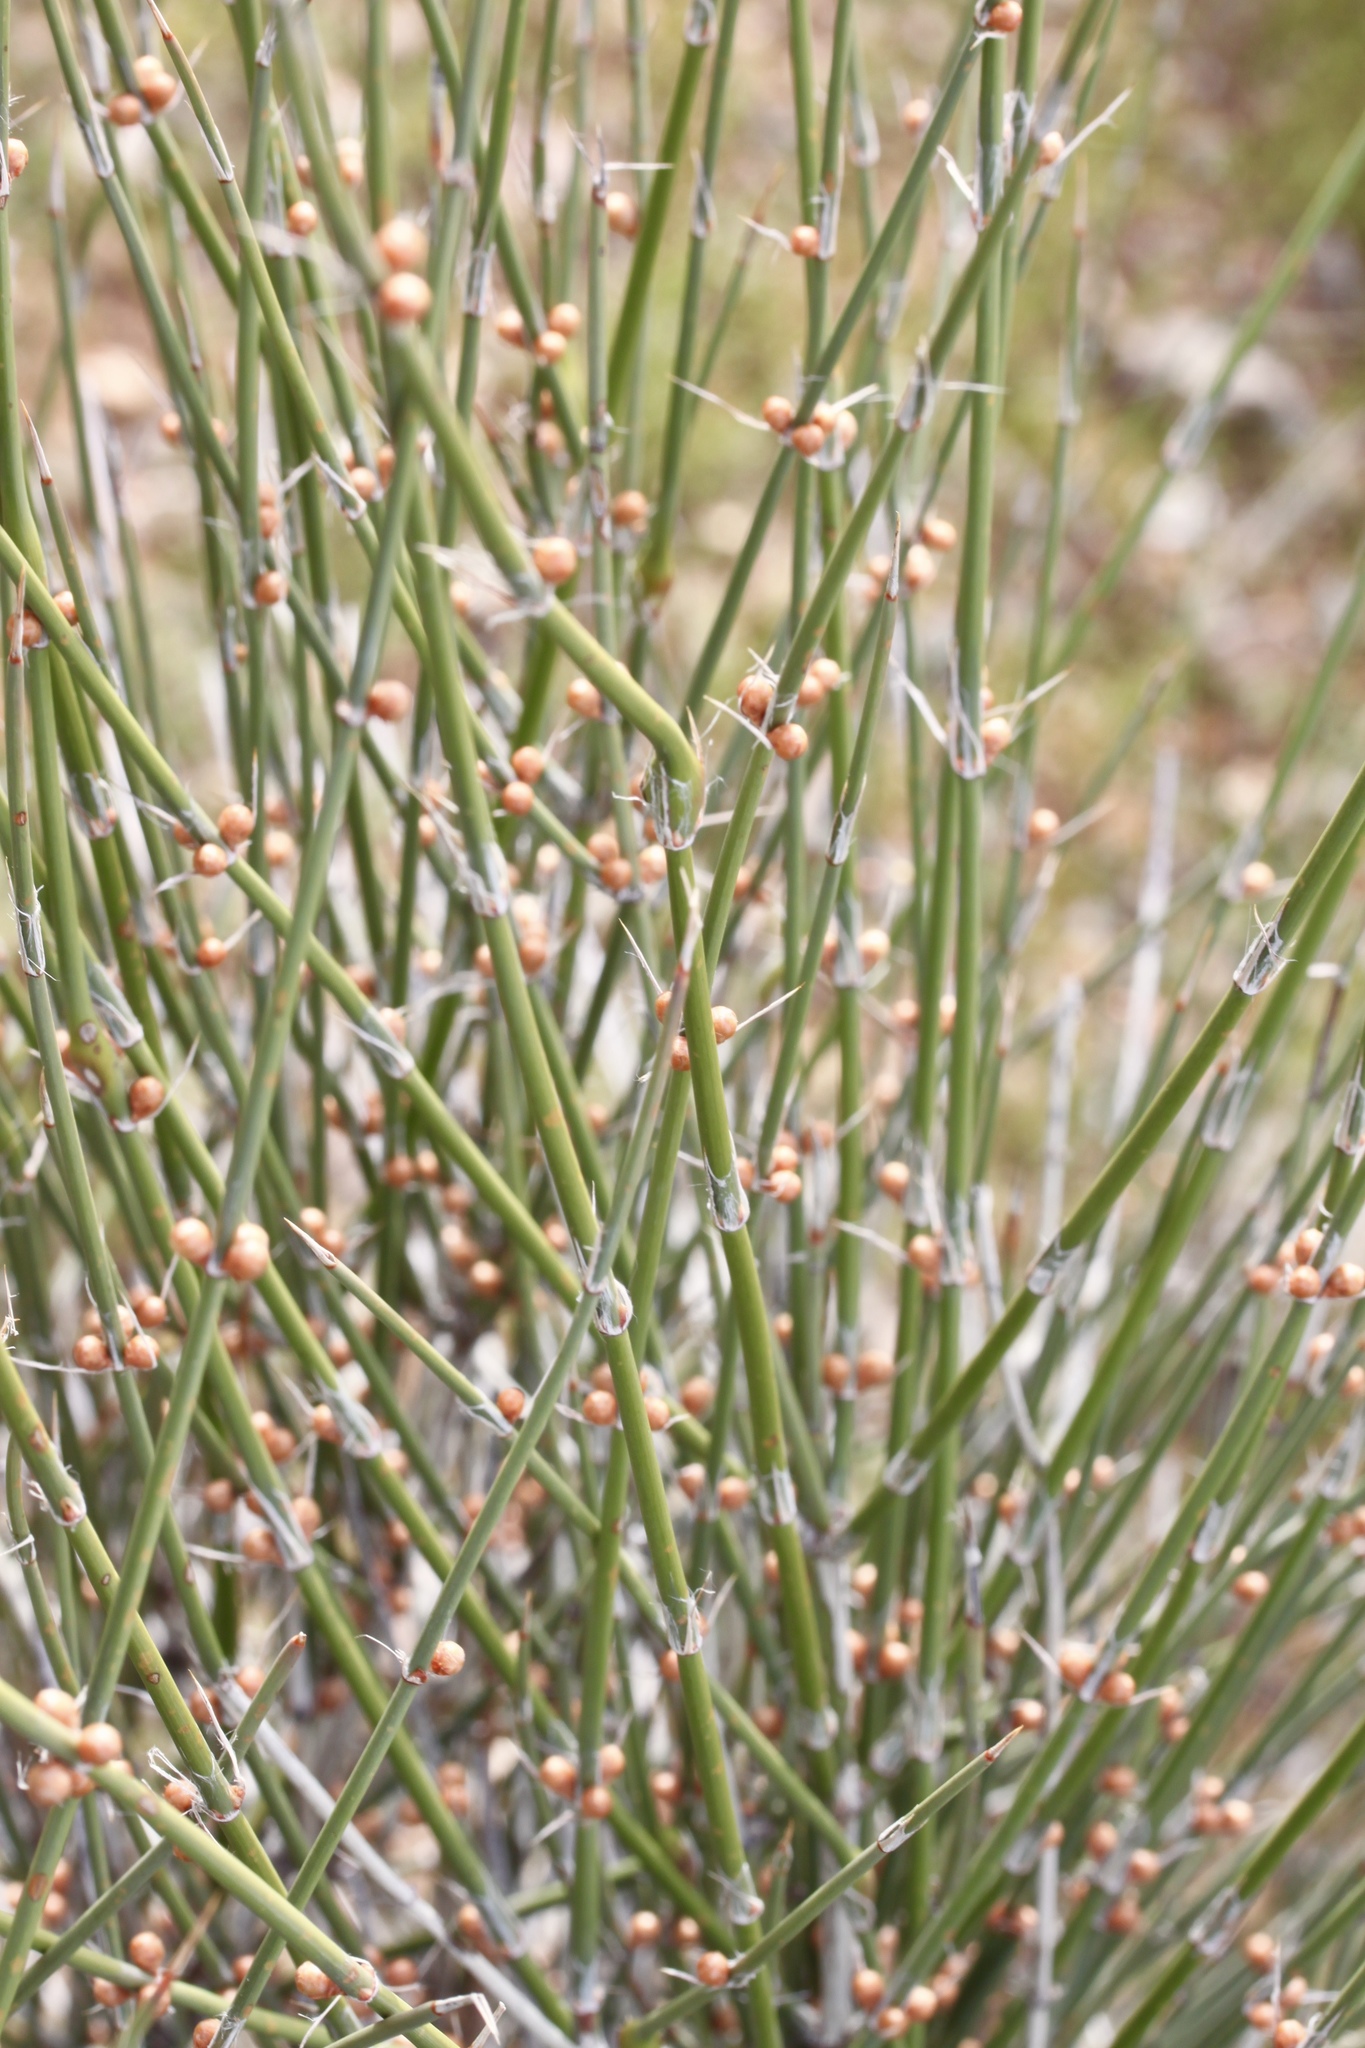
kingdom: Plantae
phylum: Tracheophyta
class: Gnetopsida
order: Ephedrales
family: Ephedraceae
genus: Ephedra
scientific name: Ephedra trifurca
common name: Mexican-tea
